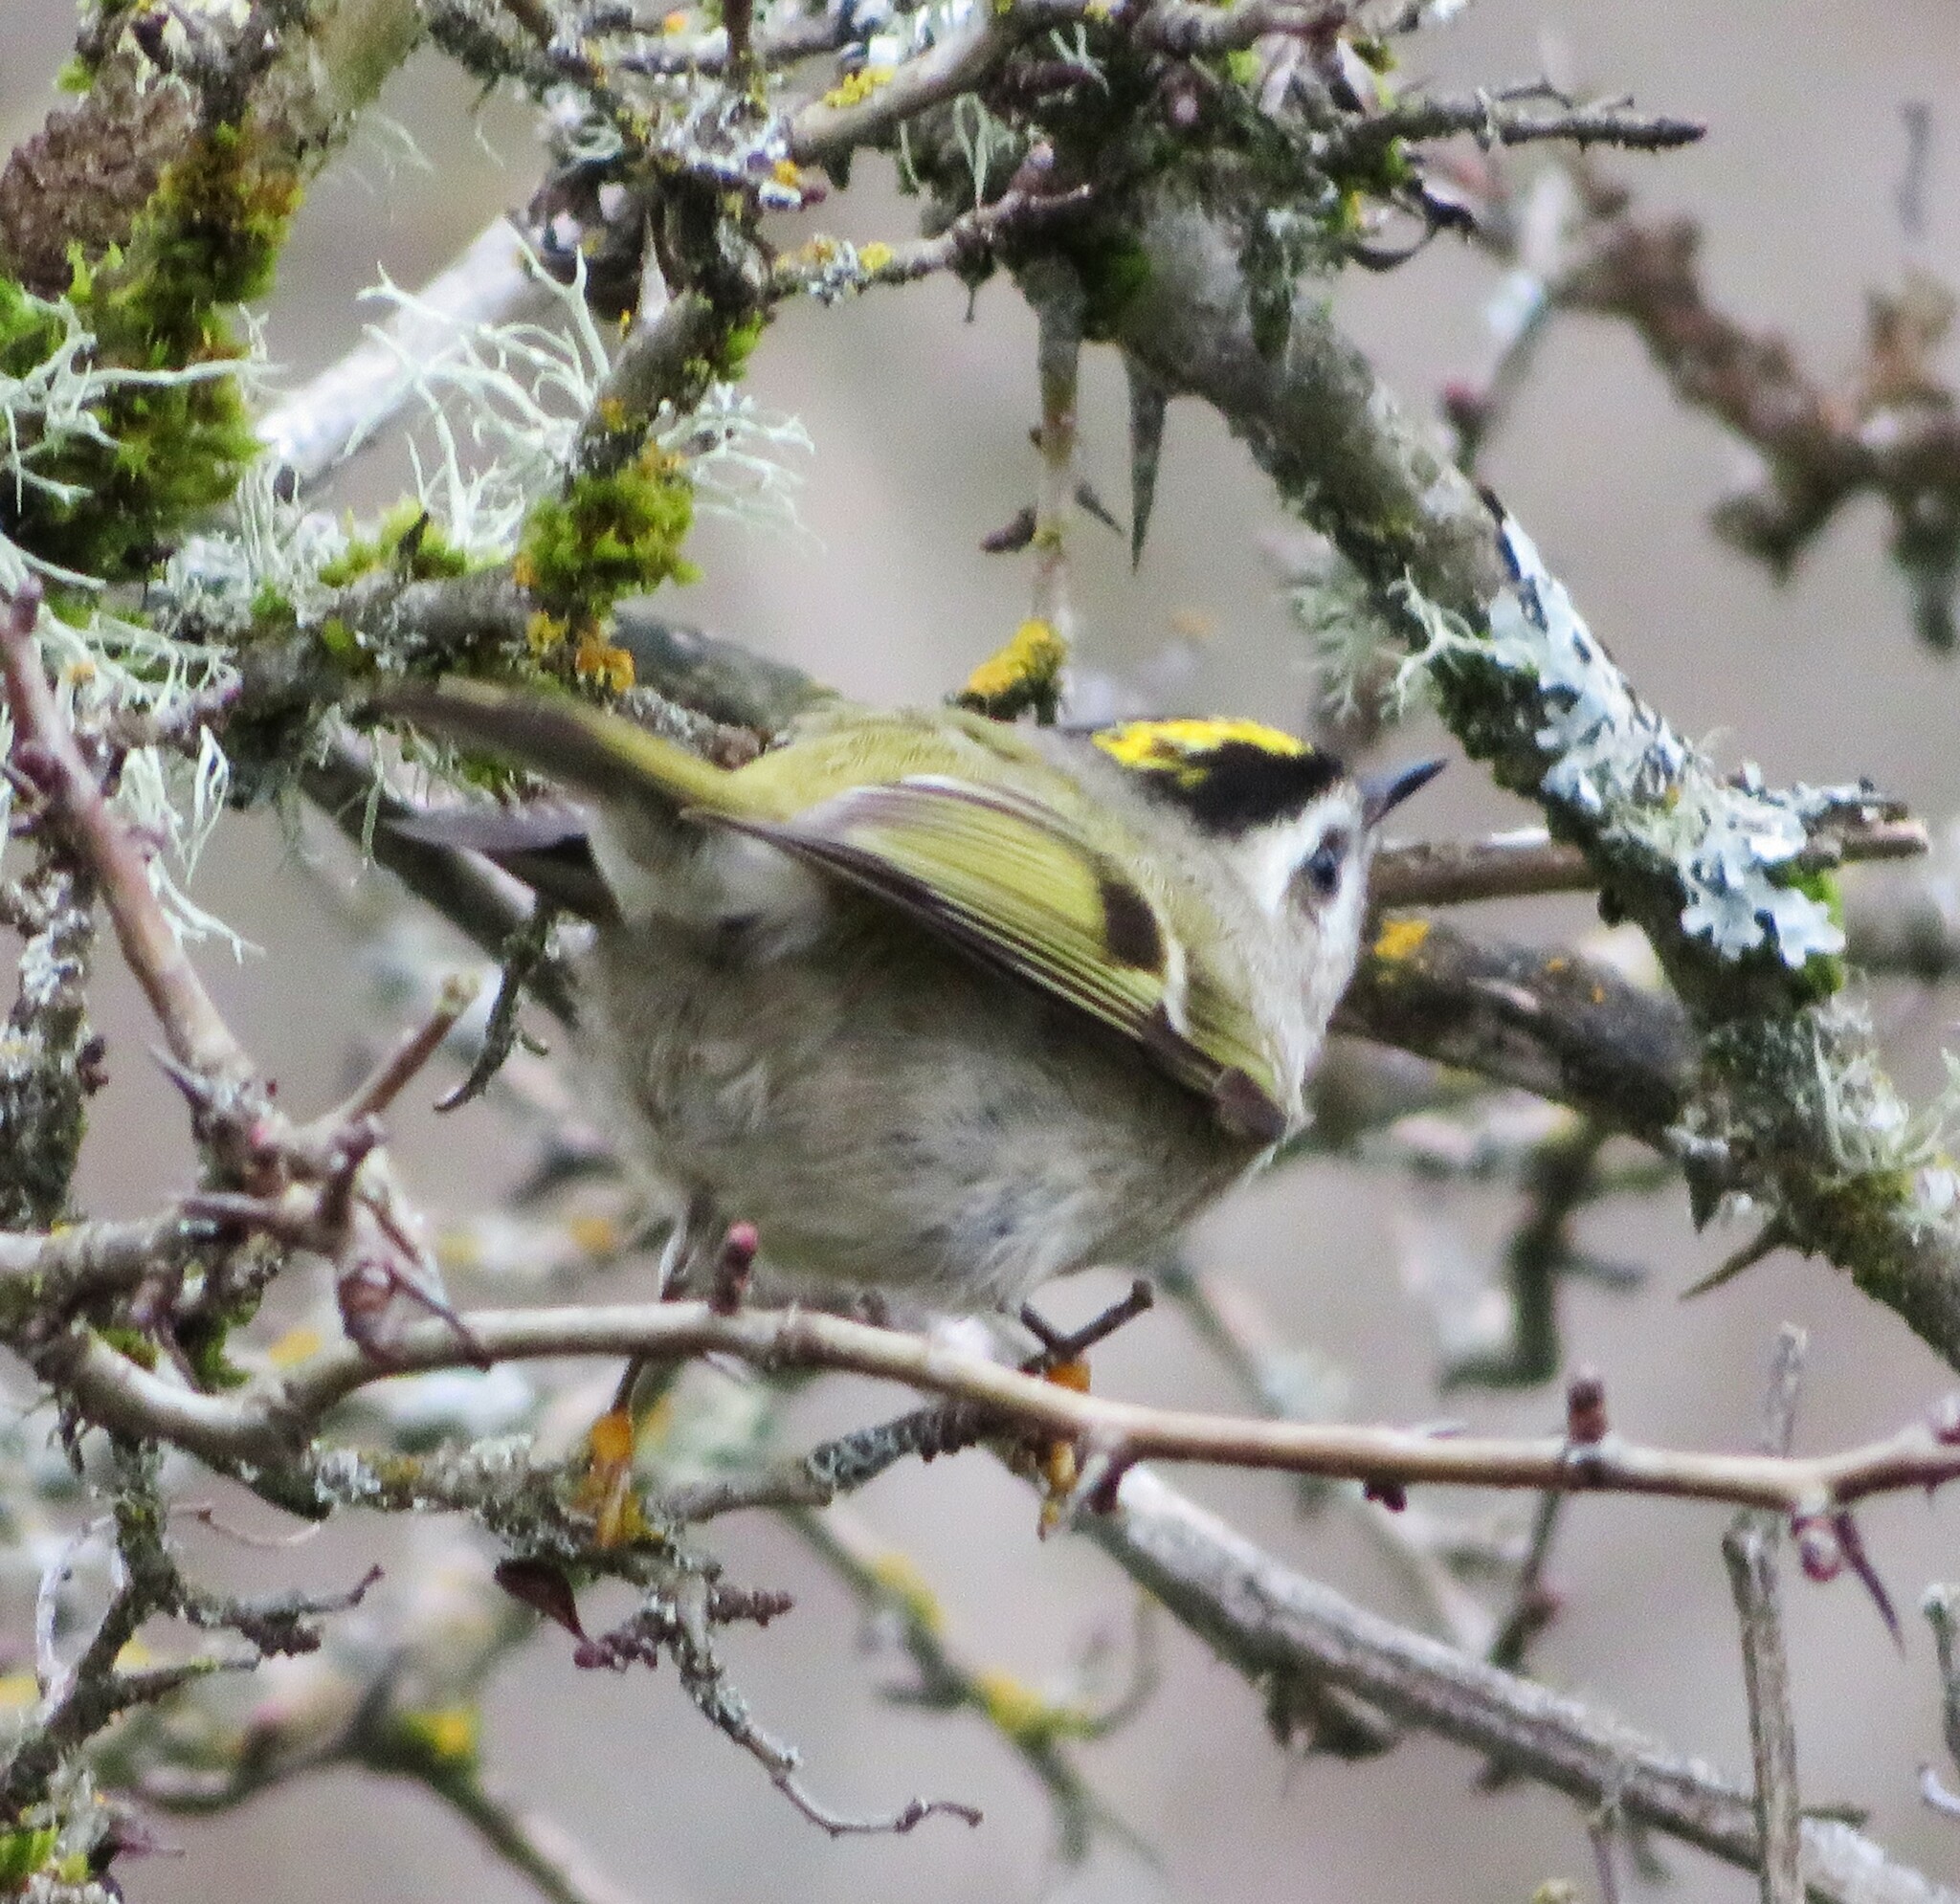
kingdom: Animalia
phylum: Chordata
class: Aves
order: Passeriformes
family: Regulidae
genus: Regulus
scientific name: Regulus satrapa
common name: Golden-crowned kinglet
